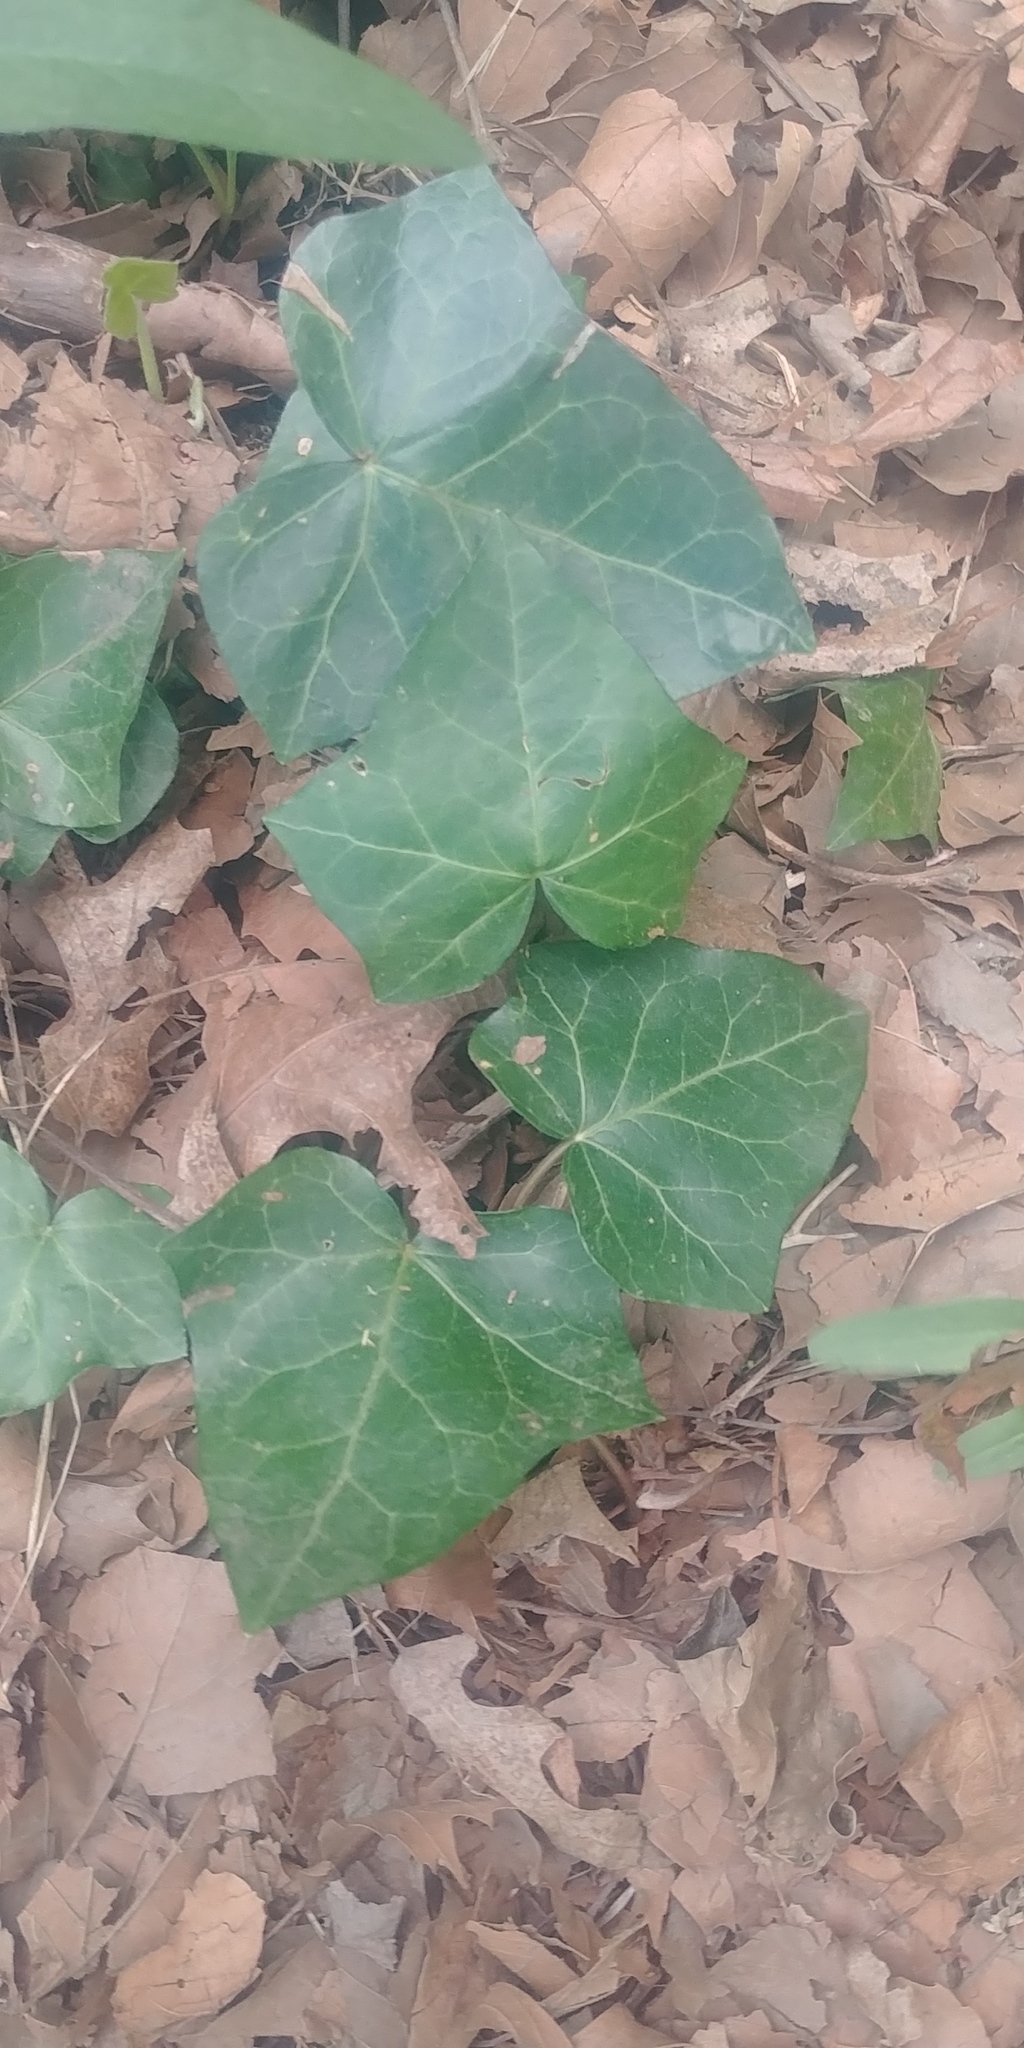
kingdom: Plantae
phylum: Tracheophyta
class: Magnoliopsida
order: Apiales
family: Araliaceae
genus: Hedera
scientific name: Hedera helix
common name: Ivy
